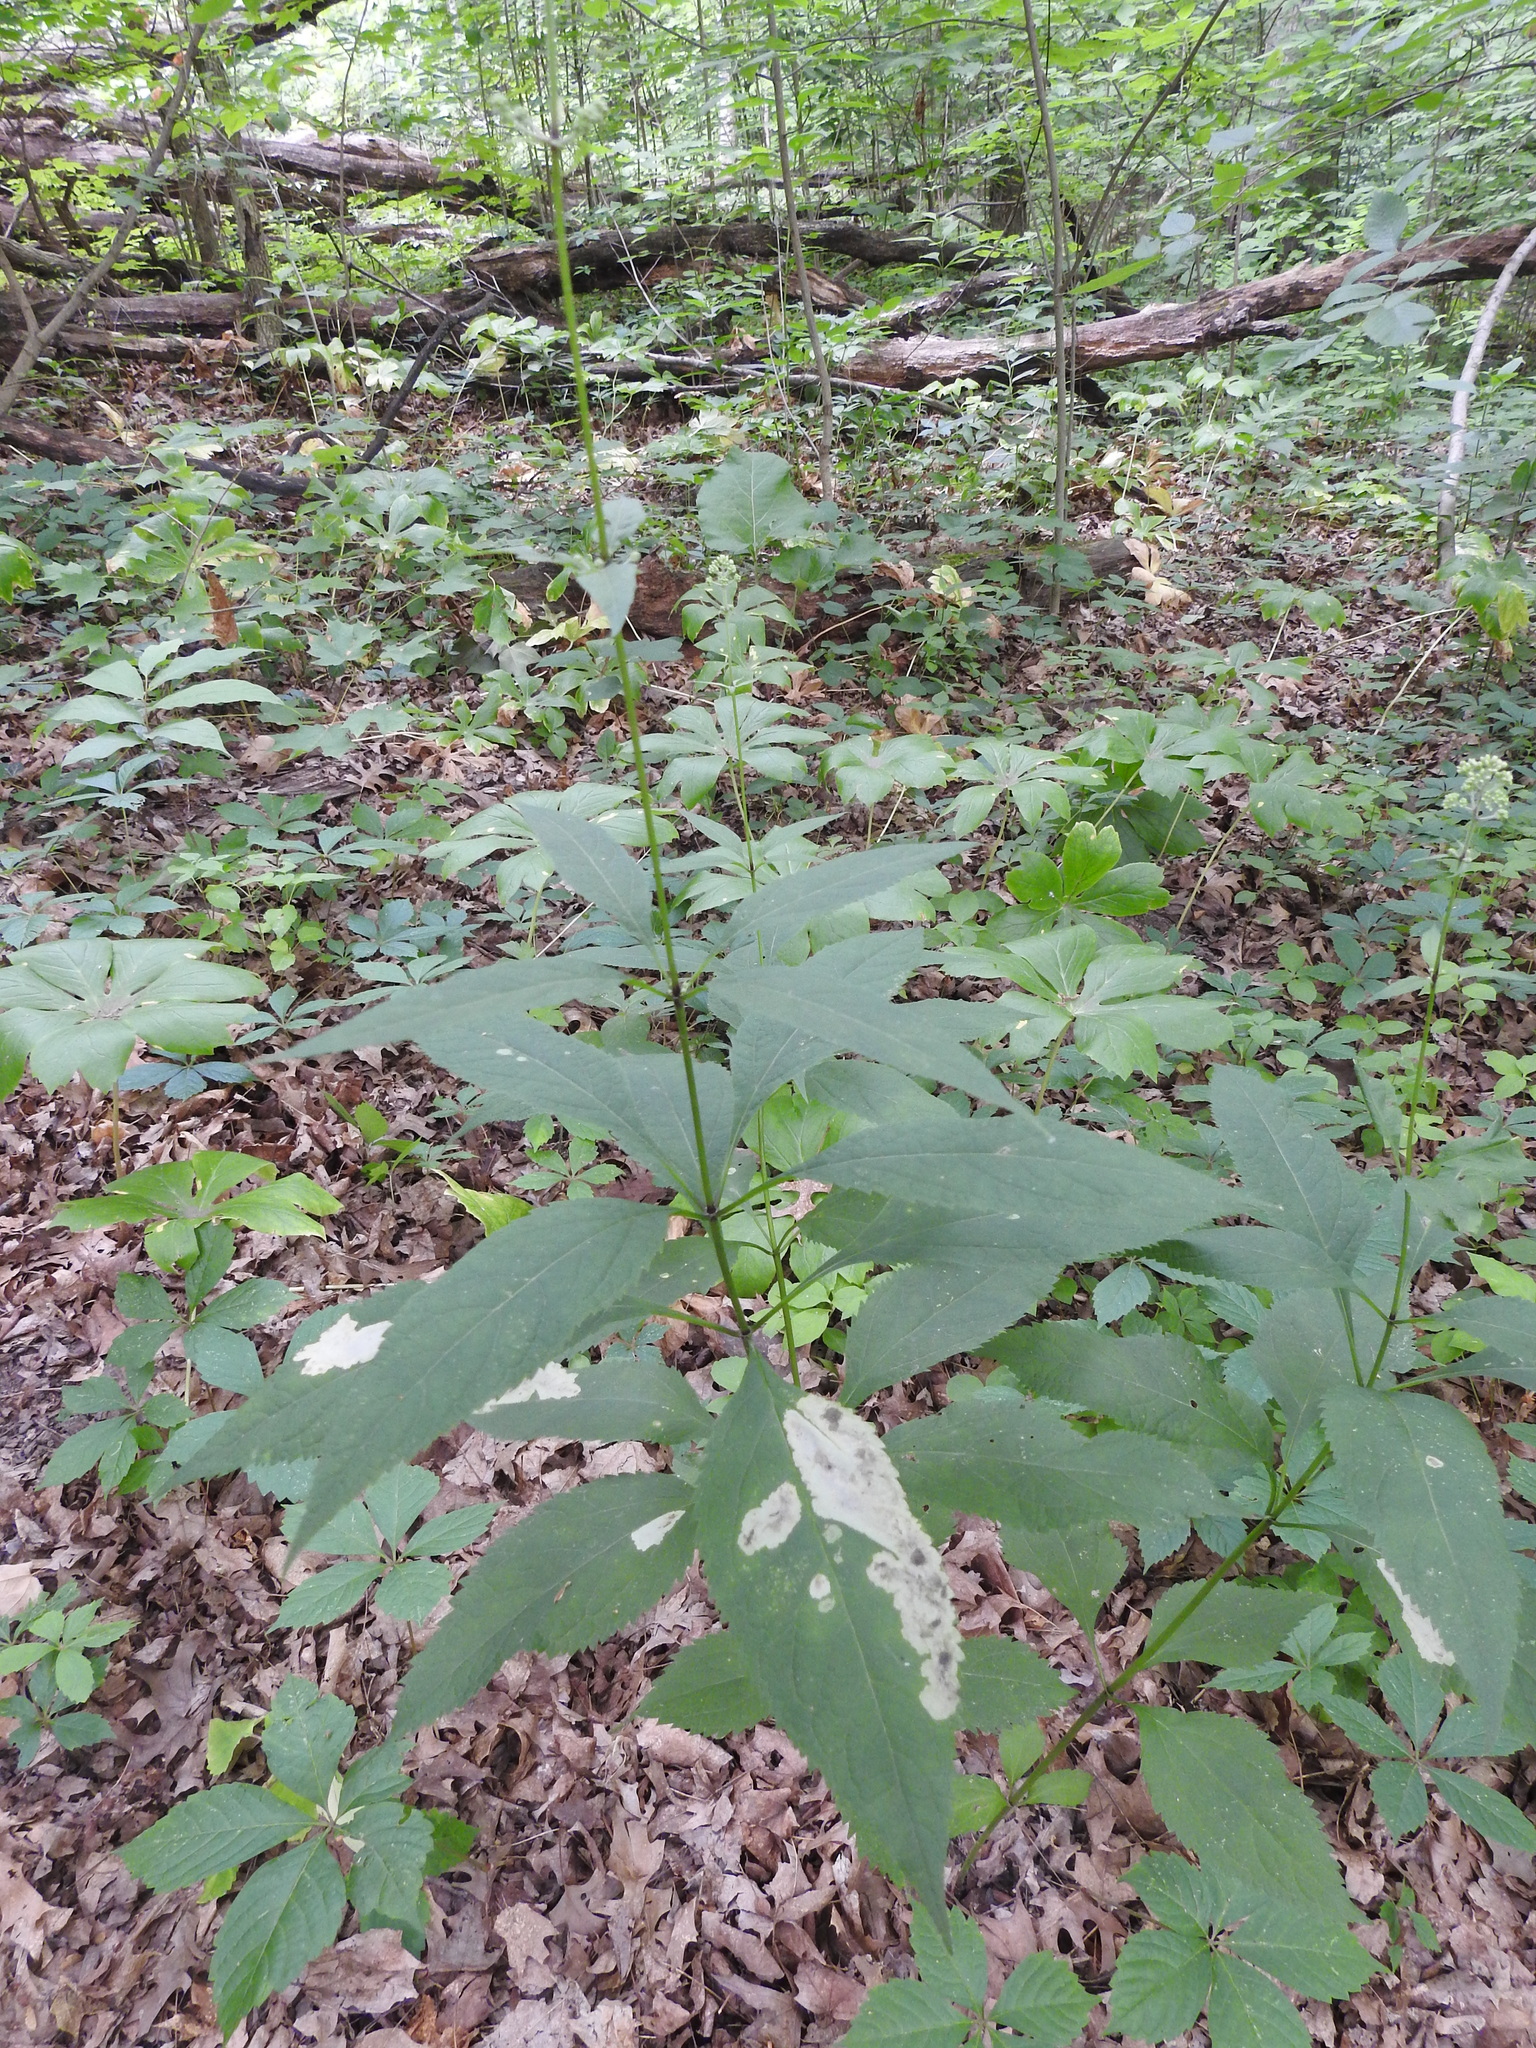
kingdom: Plantae
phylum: Tracheophyta
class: Magnoliopsida
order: Asterales
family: Asteraceae
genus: Eutrochium
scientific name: Eutrochium purpureum
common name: Gravelroot
